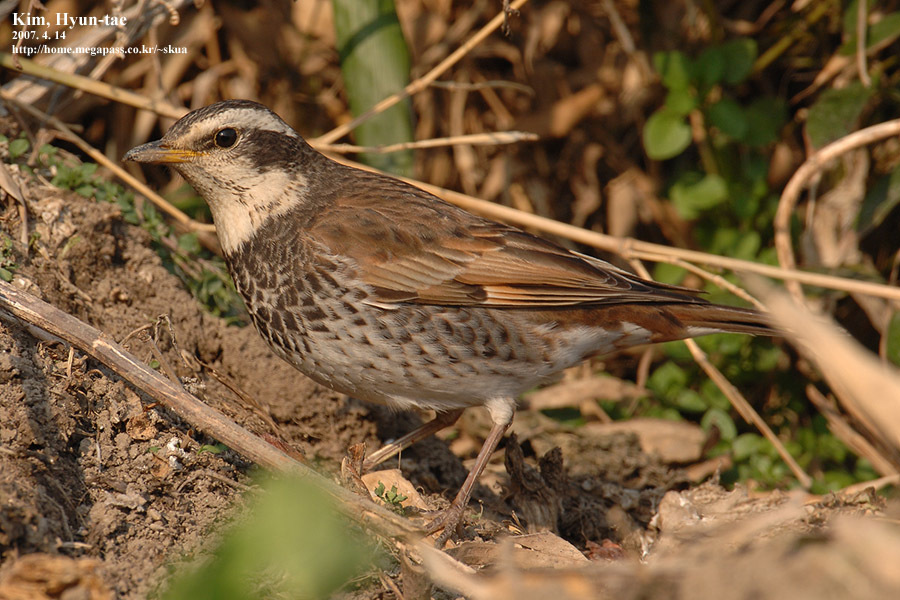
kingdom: Animalia
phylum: Chordata
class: Aves
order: Passeriformes
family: Turdidae
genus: Turdus
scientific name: Turdus eunomus
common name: Dusky thrush
